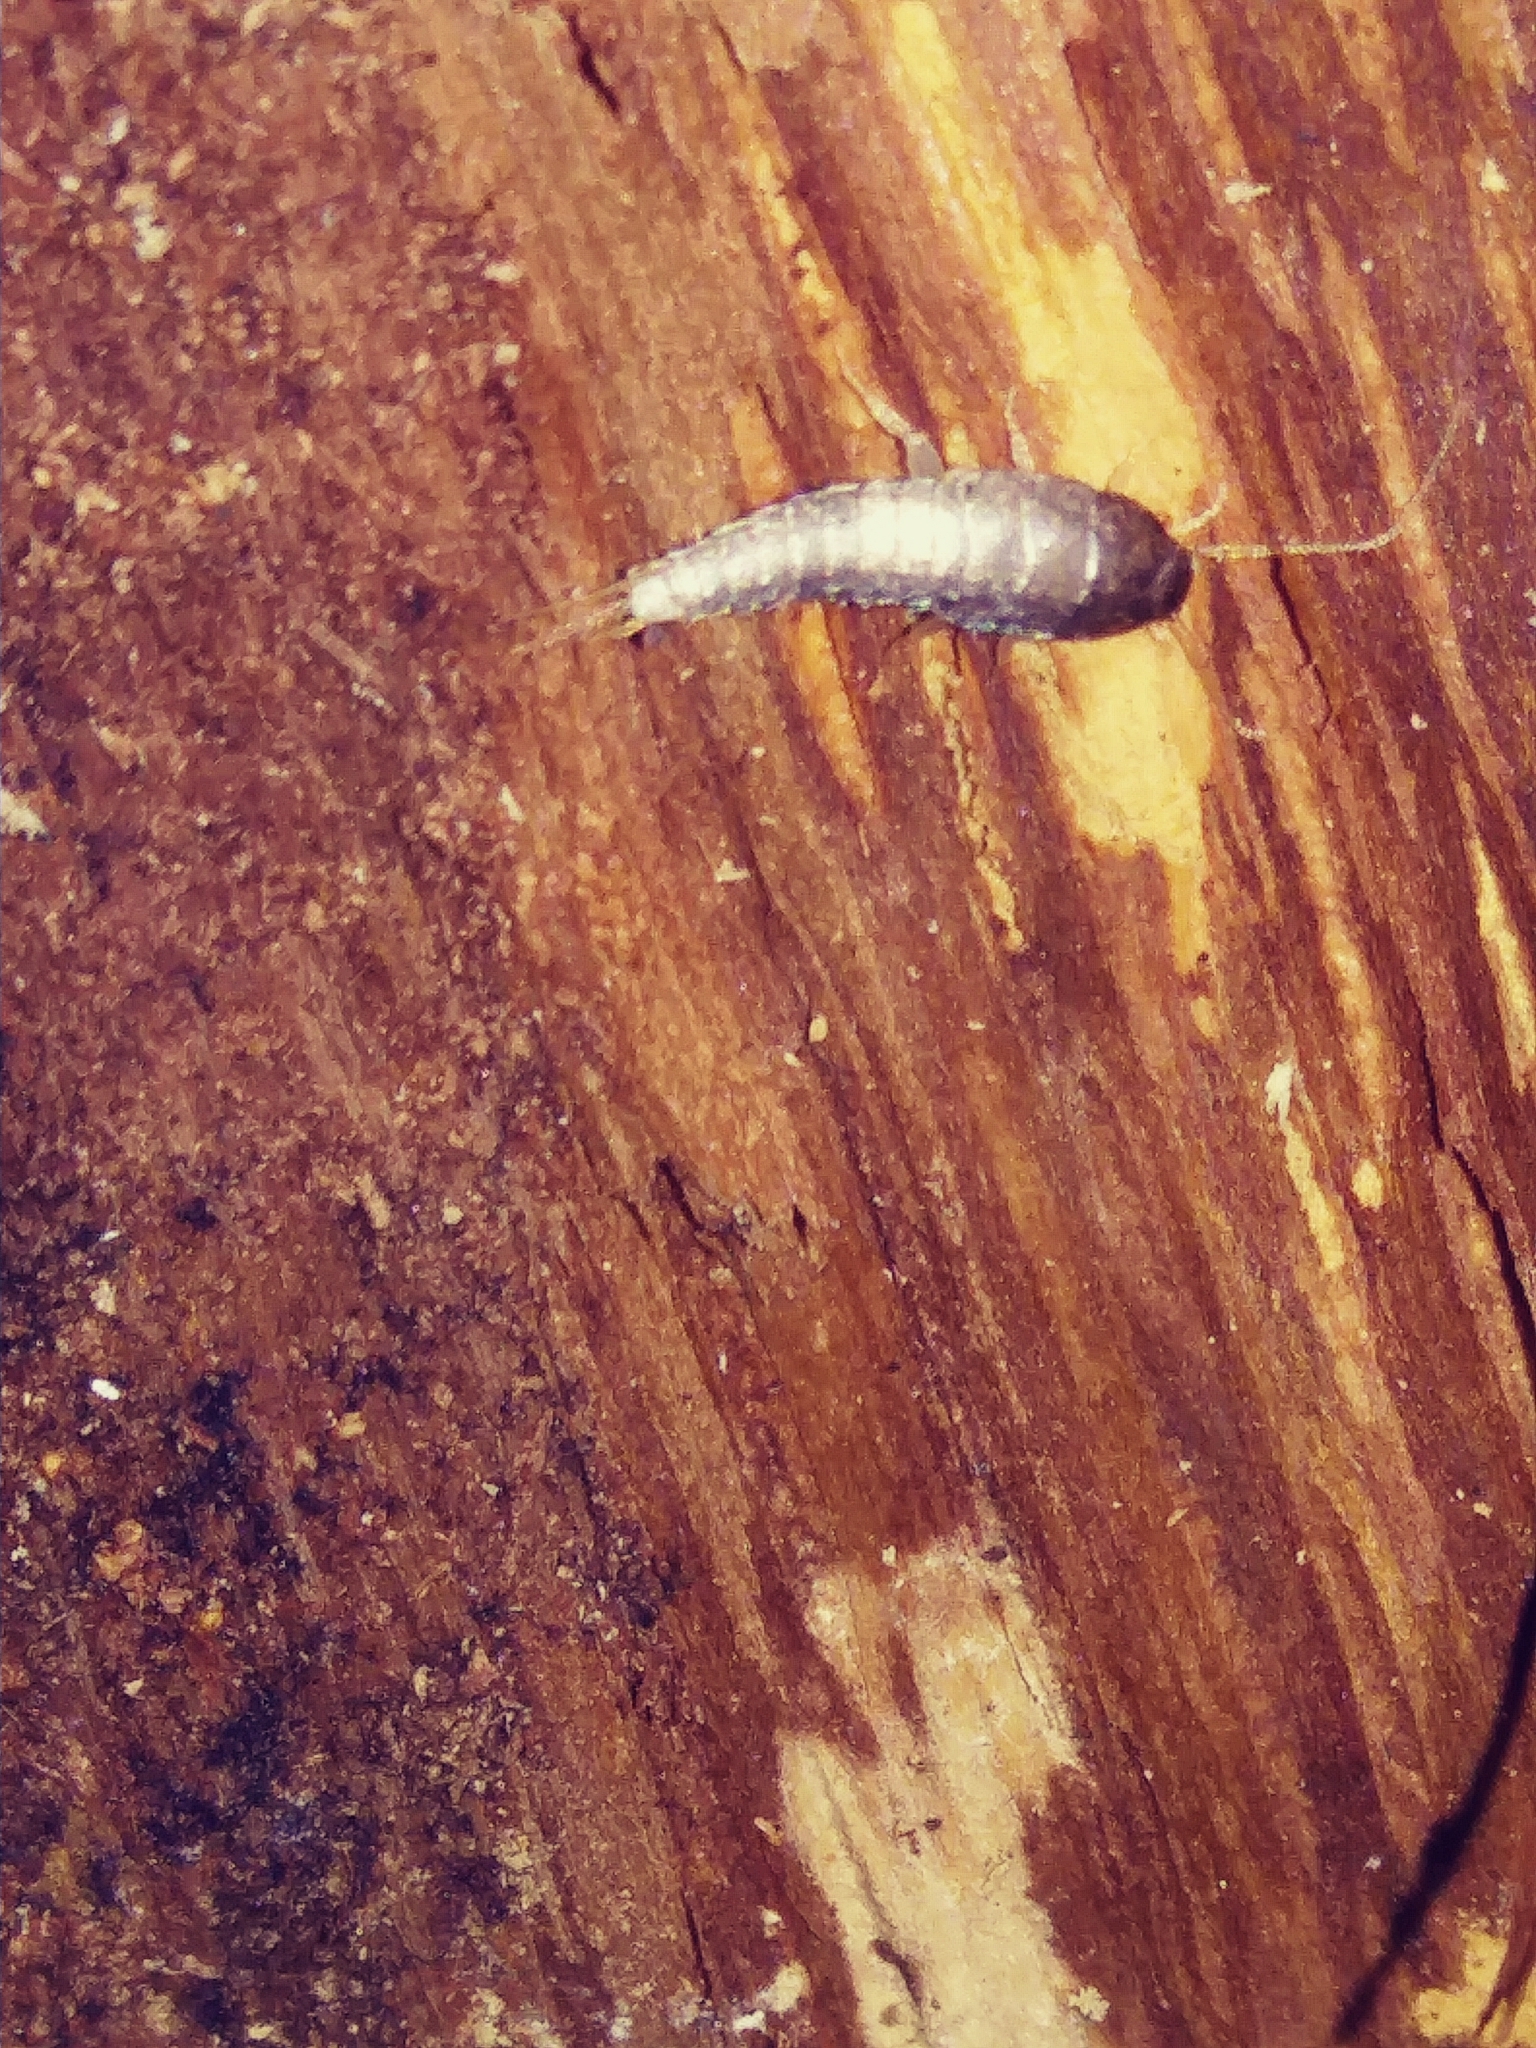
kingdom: Animalia
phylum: Arthropoda
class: Insecta
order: Zygentoma
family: Lepismatidae
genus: Lepisma
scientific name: Lepisma saccharinum
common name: Silverfish
